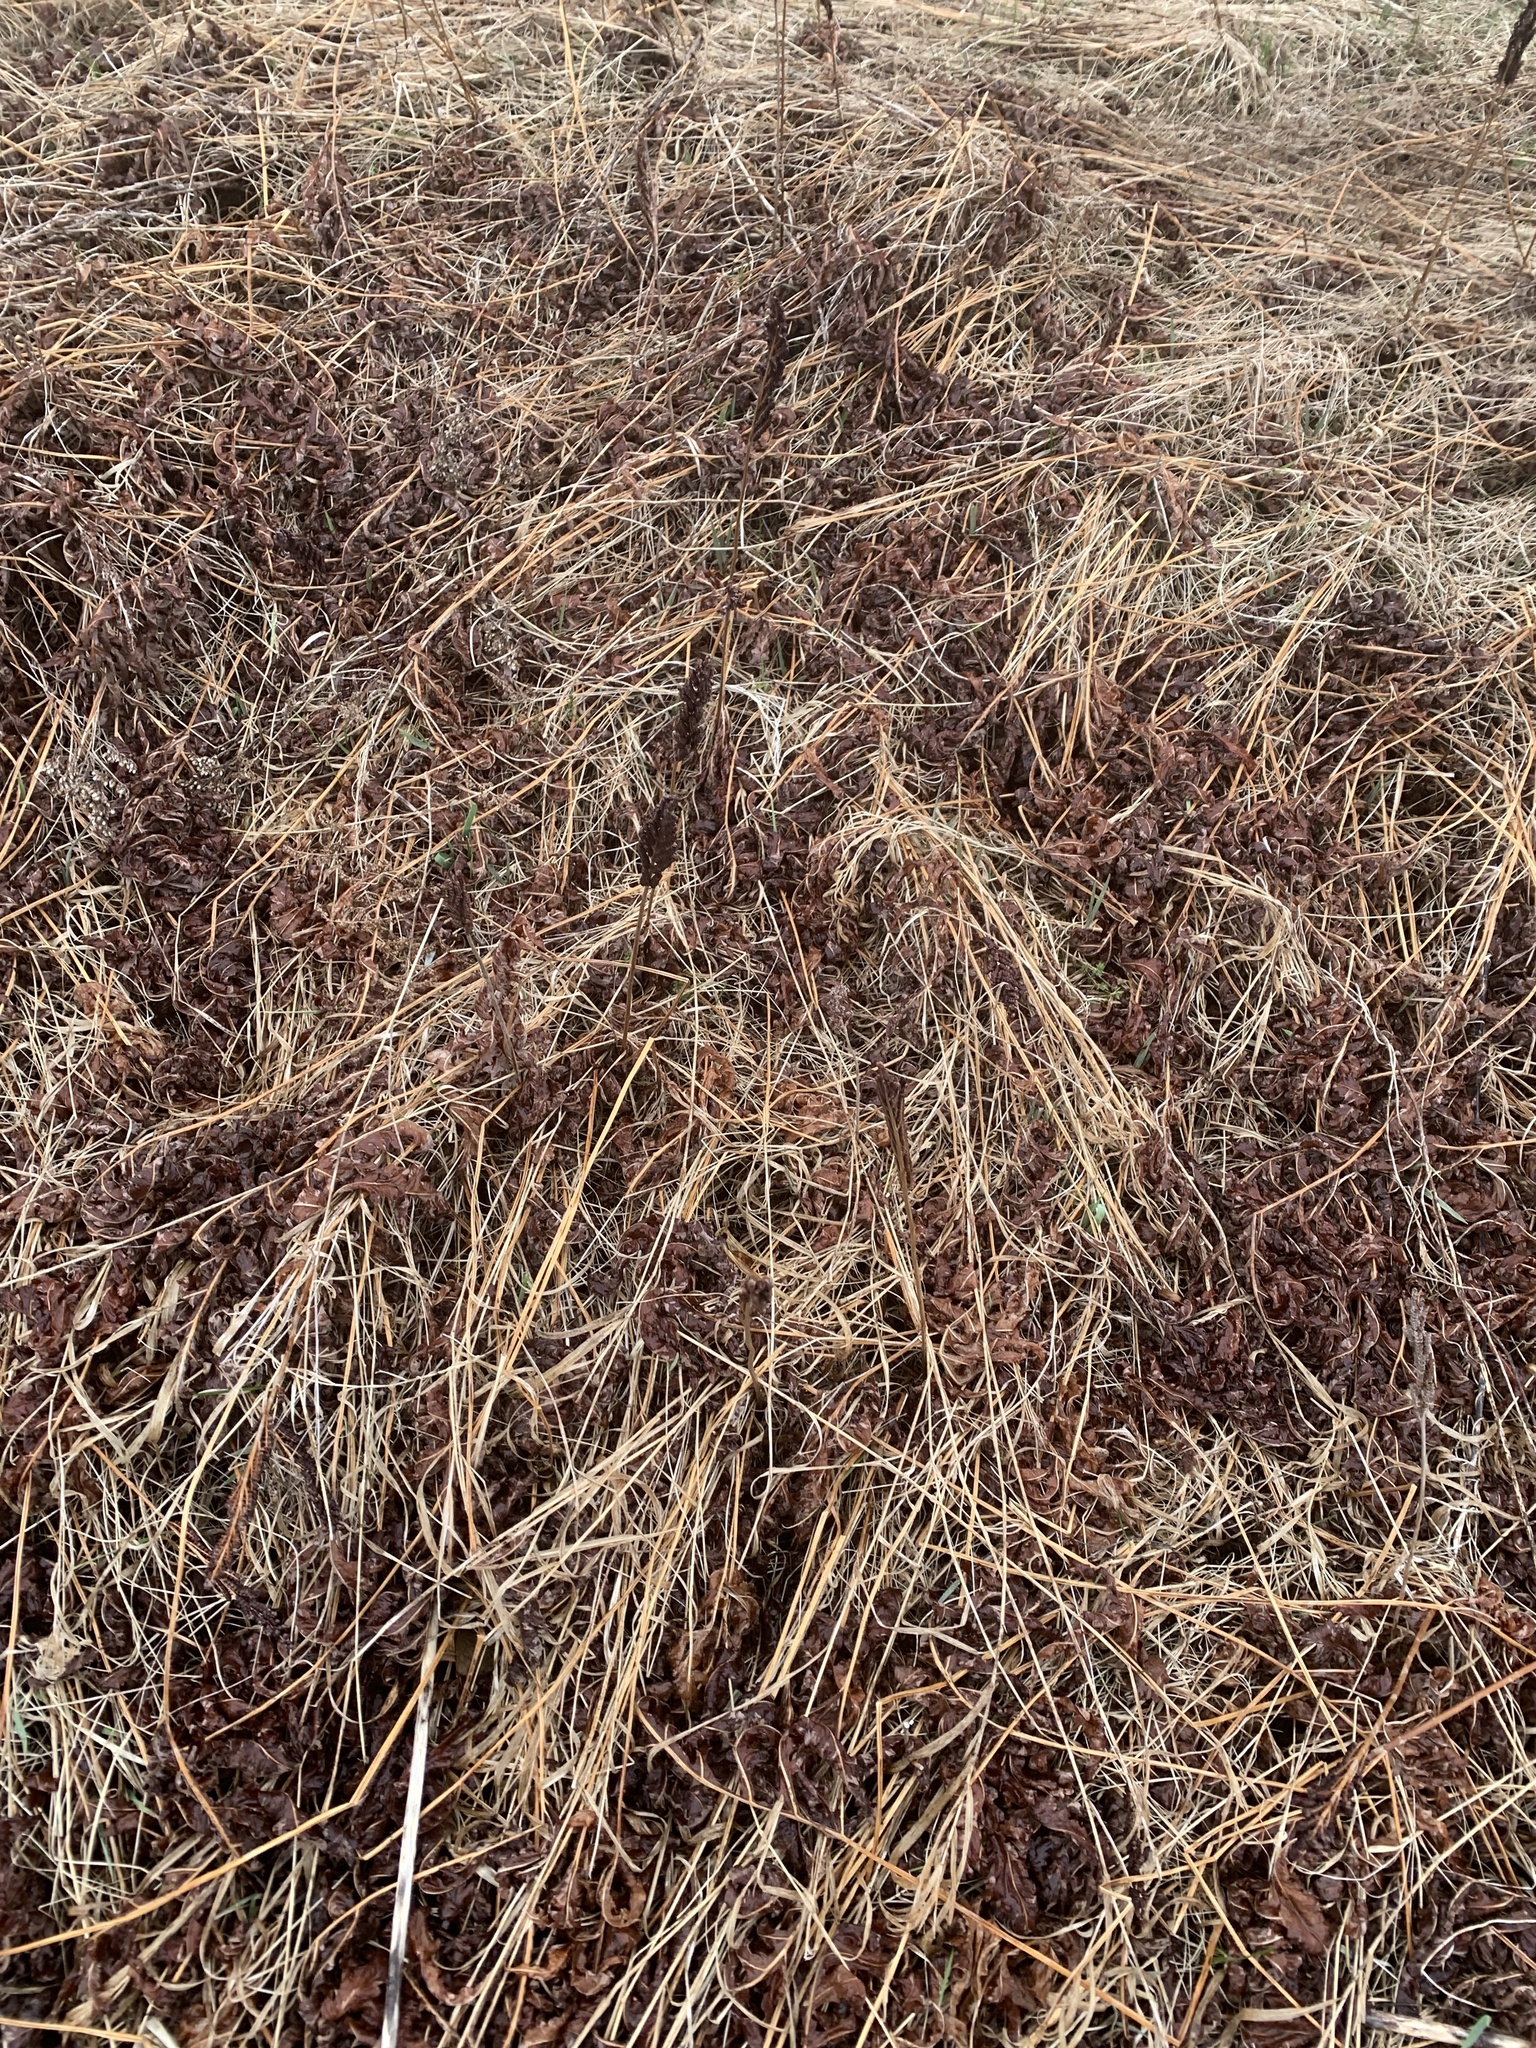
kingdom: Plantae
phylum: Tracheophyta
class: Polypodiopsida
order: Polypodiales
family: Onocleaceae
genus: Onoclea
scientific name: Onoclea sensibilis
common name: Sensitive fern
